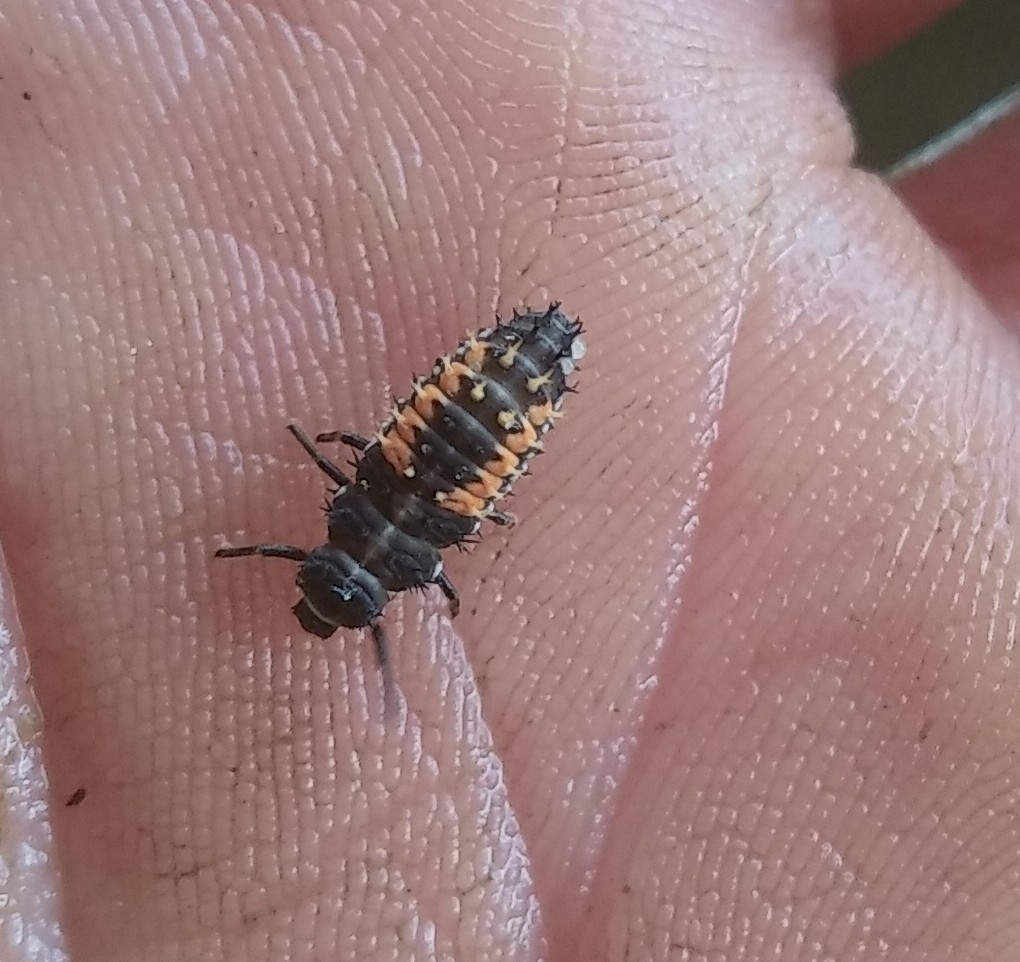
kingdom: Animalia
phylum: Arthropoda
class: Insecta
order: Coleoptera
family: Coccinellidae
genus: Harmonia
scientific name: Harmonia axyridis
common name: Harlequin ladybird
